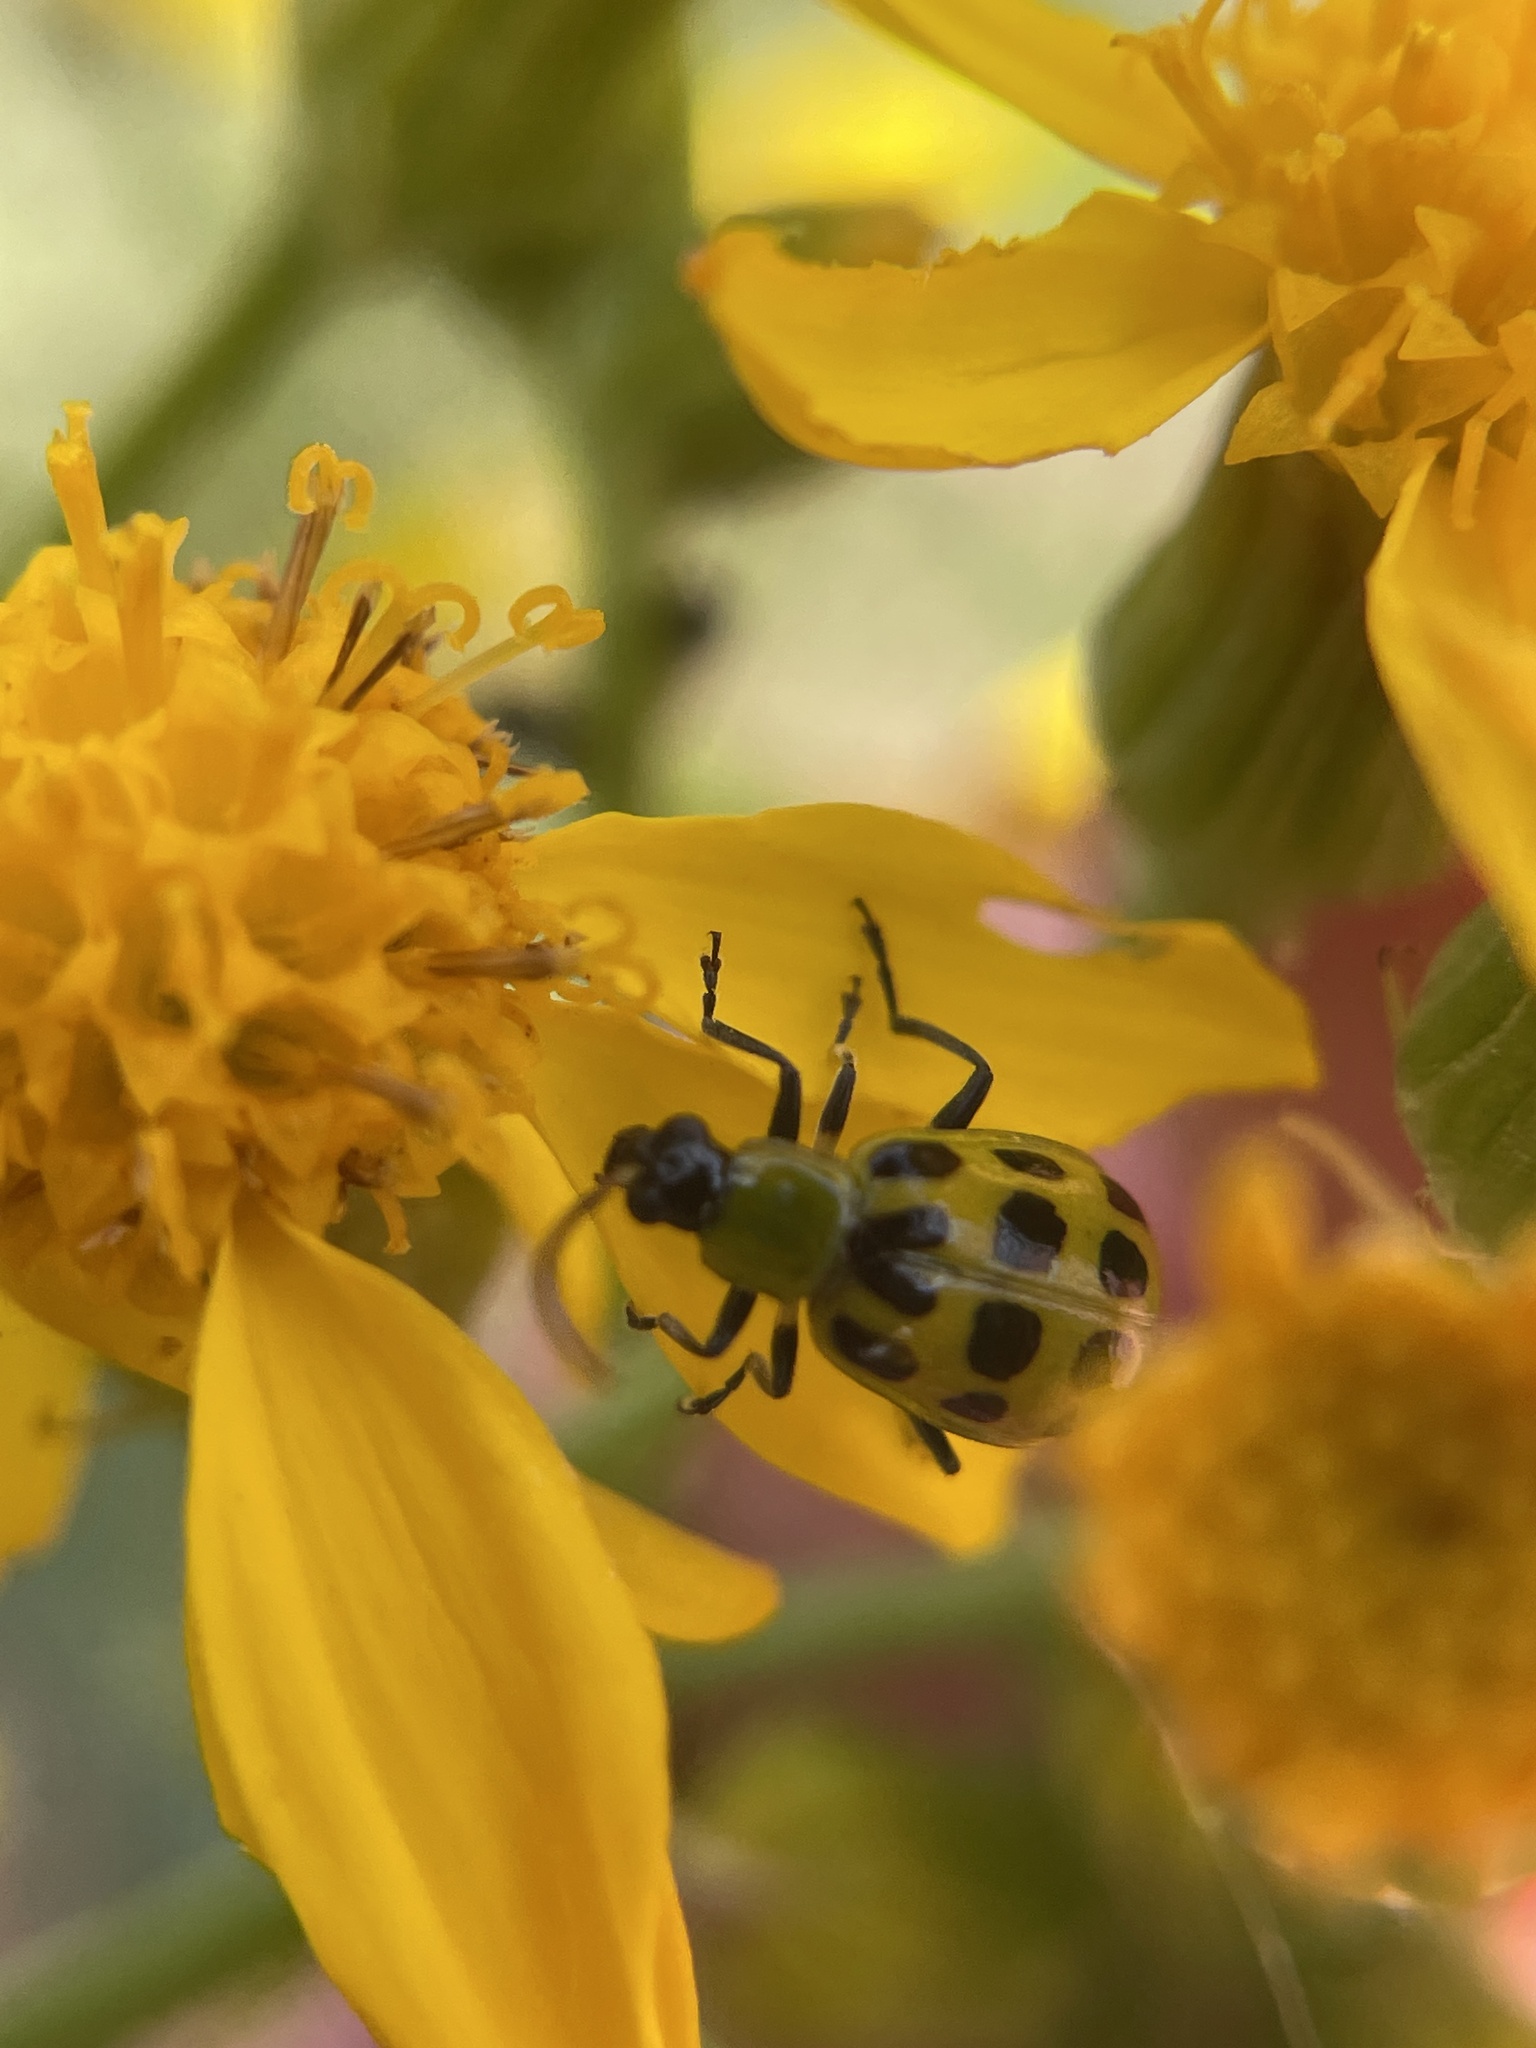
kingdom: Animalia
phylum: Arthropoda
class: Insecta
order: Coleoptera
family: Chrysomelidae
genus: Diabrotica
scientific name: Diabrotica undecimpunctata
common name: Spotted cucumber beetle
